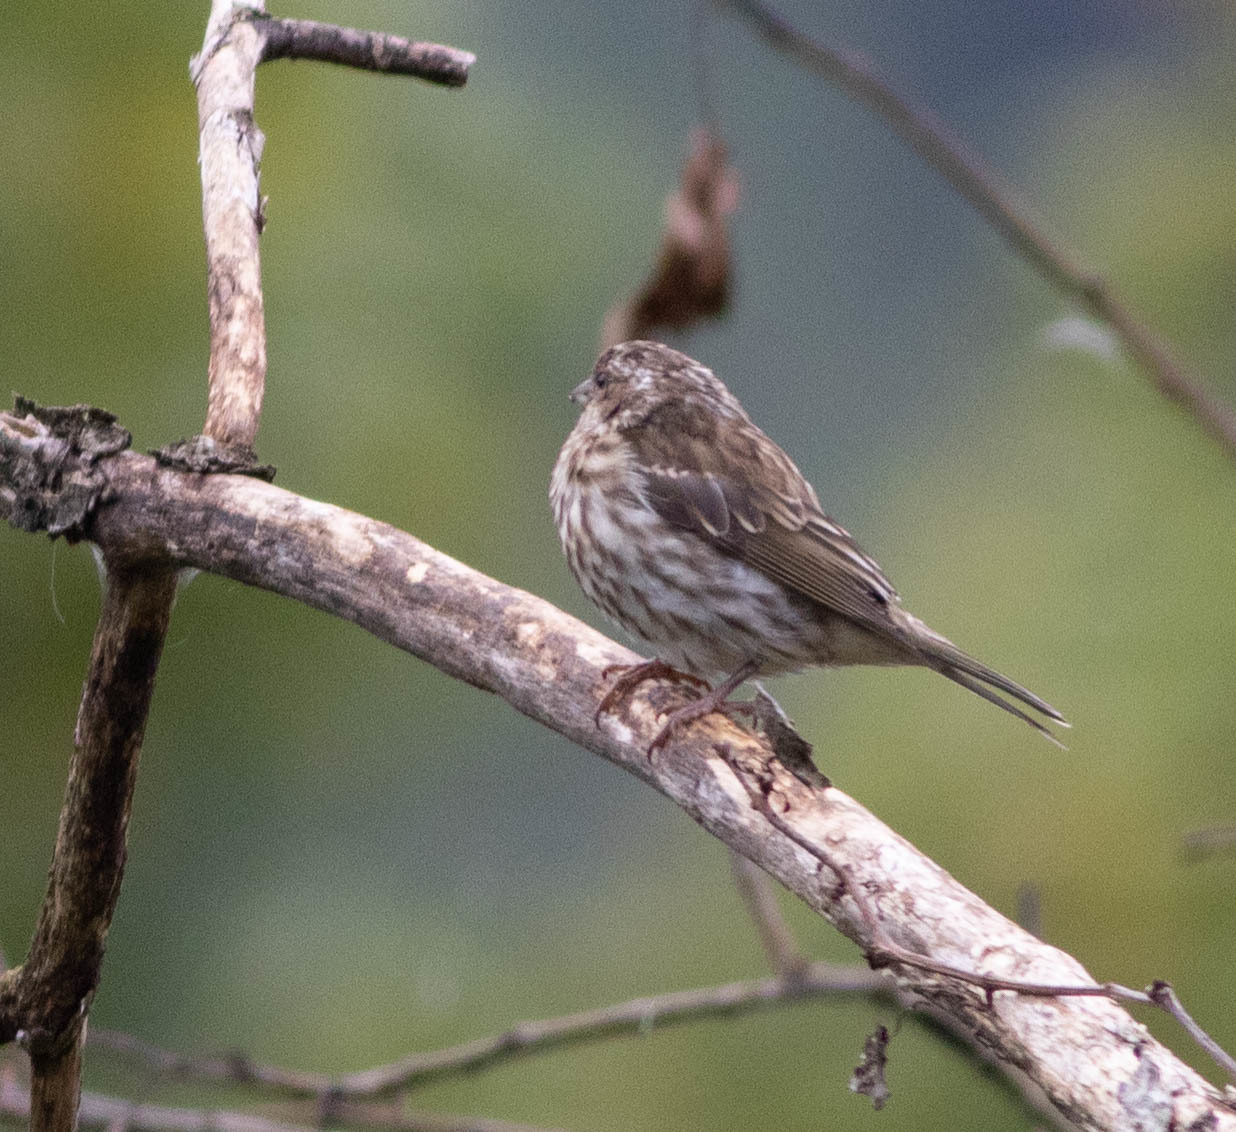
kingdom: Animalia
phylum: Chordata
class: Aves
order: Passeriformes
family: Fringillidae
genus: Haemorhous
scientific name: Haemorhous purpureus
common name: Purple finch
